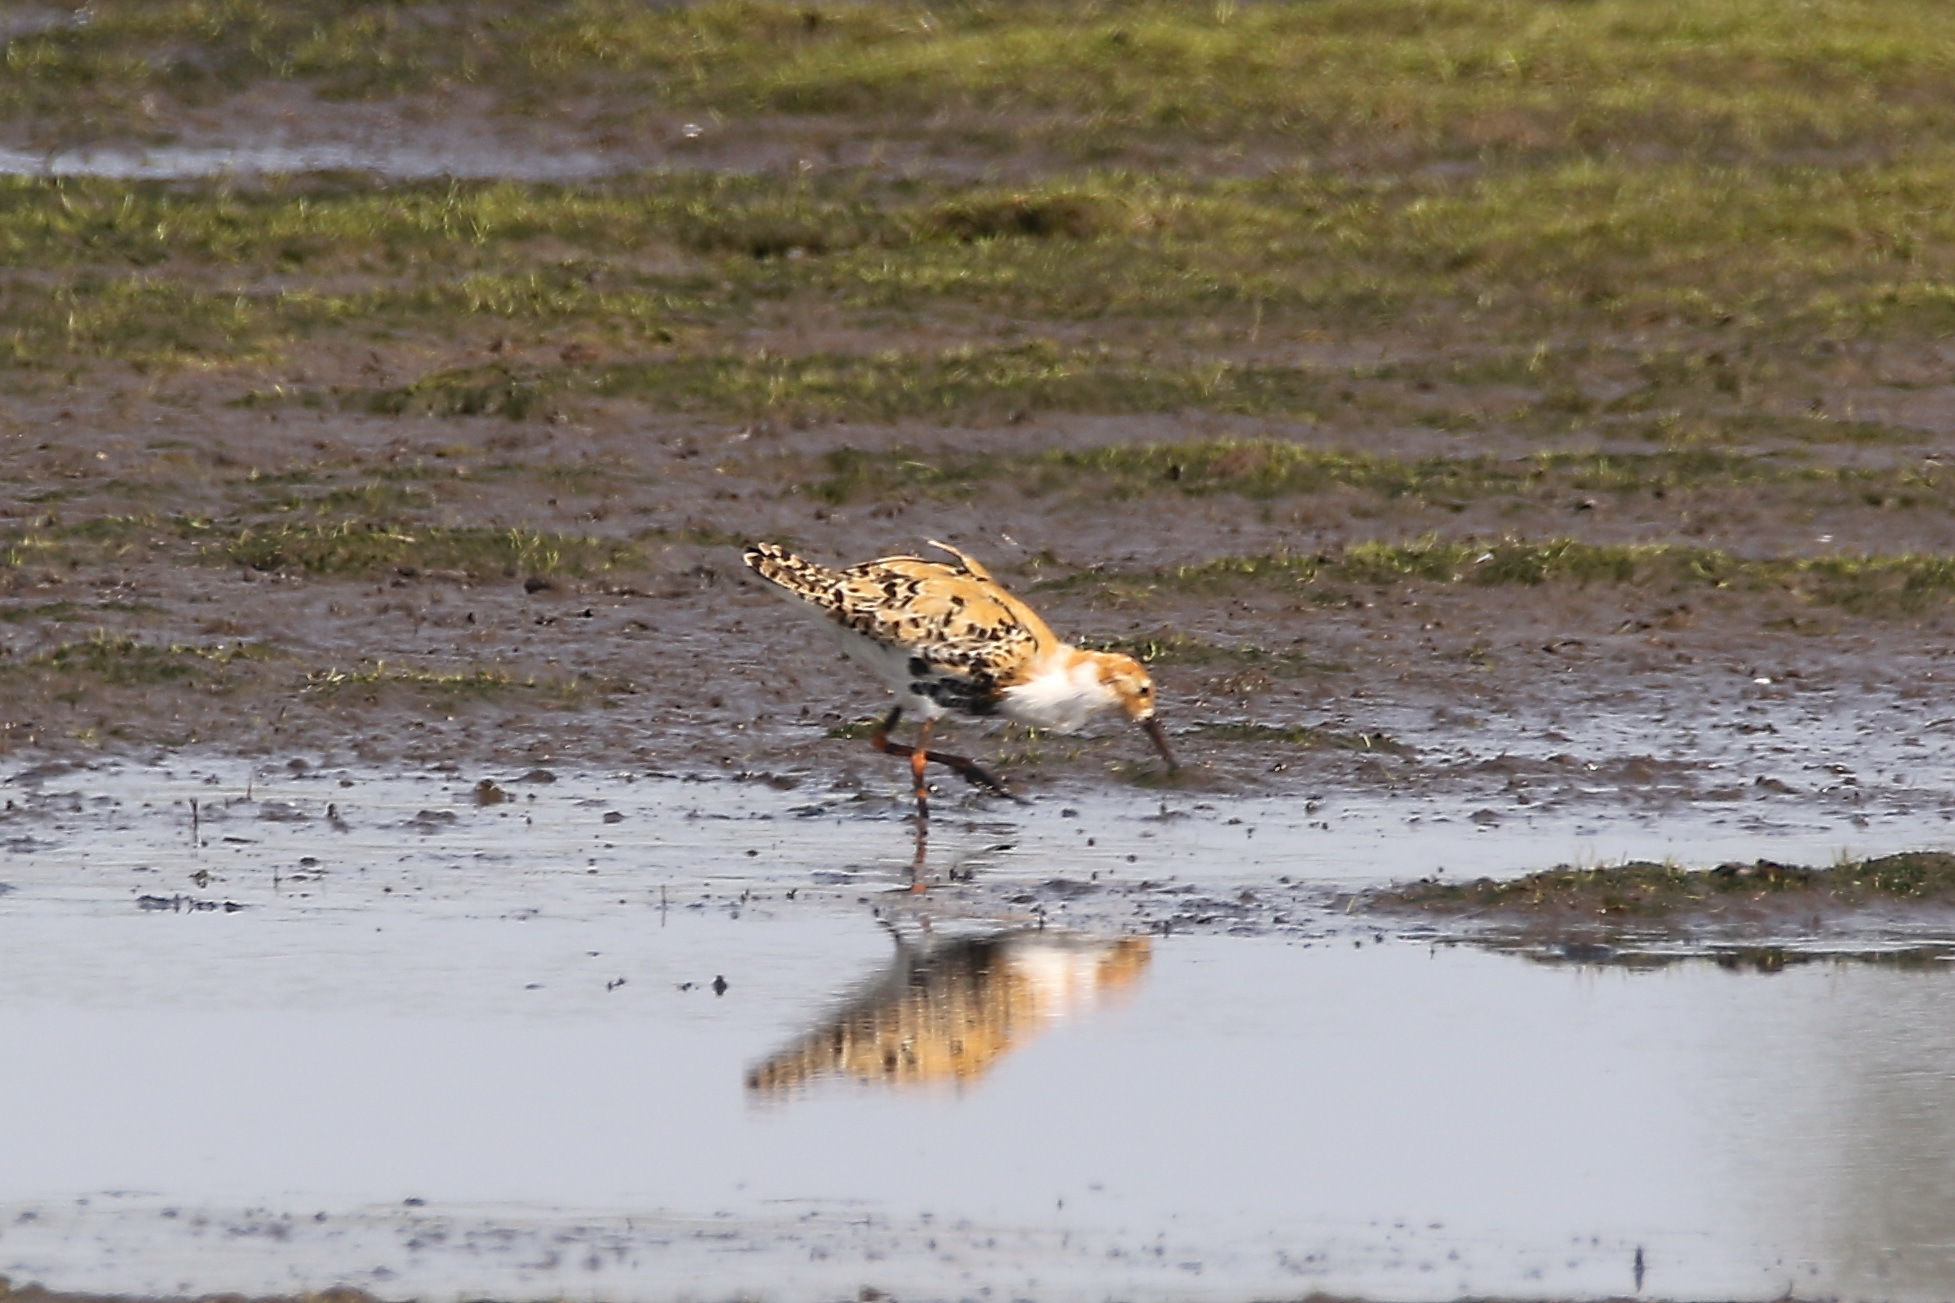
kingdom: Animalia
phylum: Chordata
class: Aves
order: Charadriiformes
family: Scolopacidae
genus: Calidris
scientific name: Calidris pugnax
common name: Ruff
